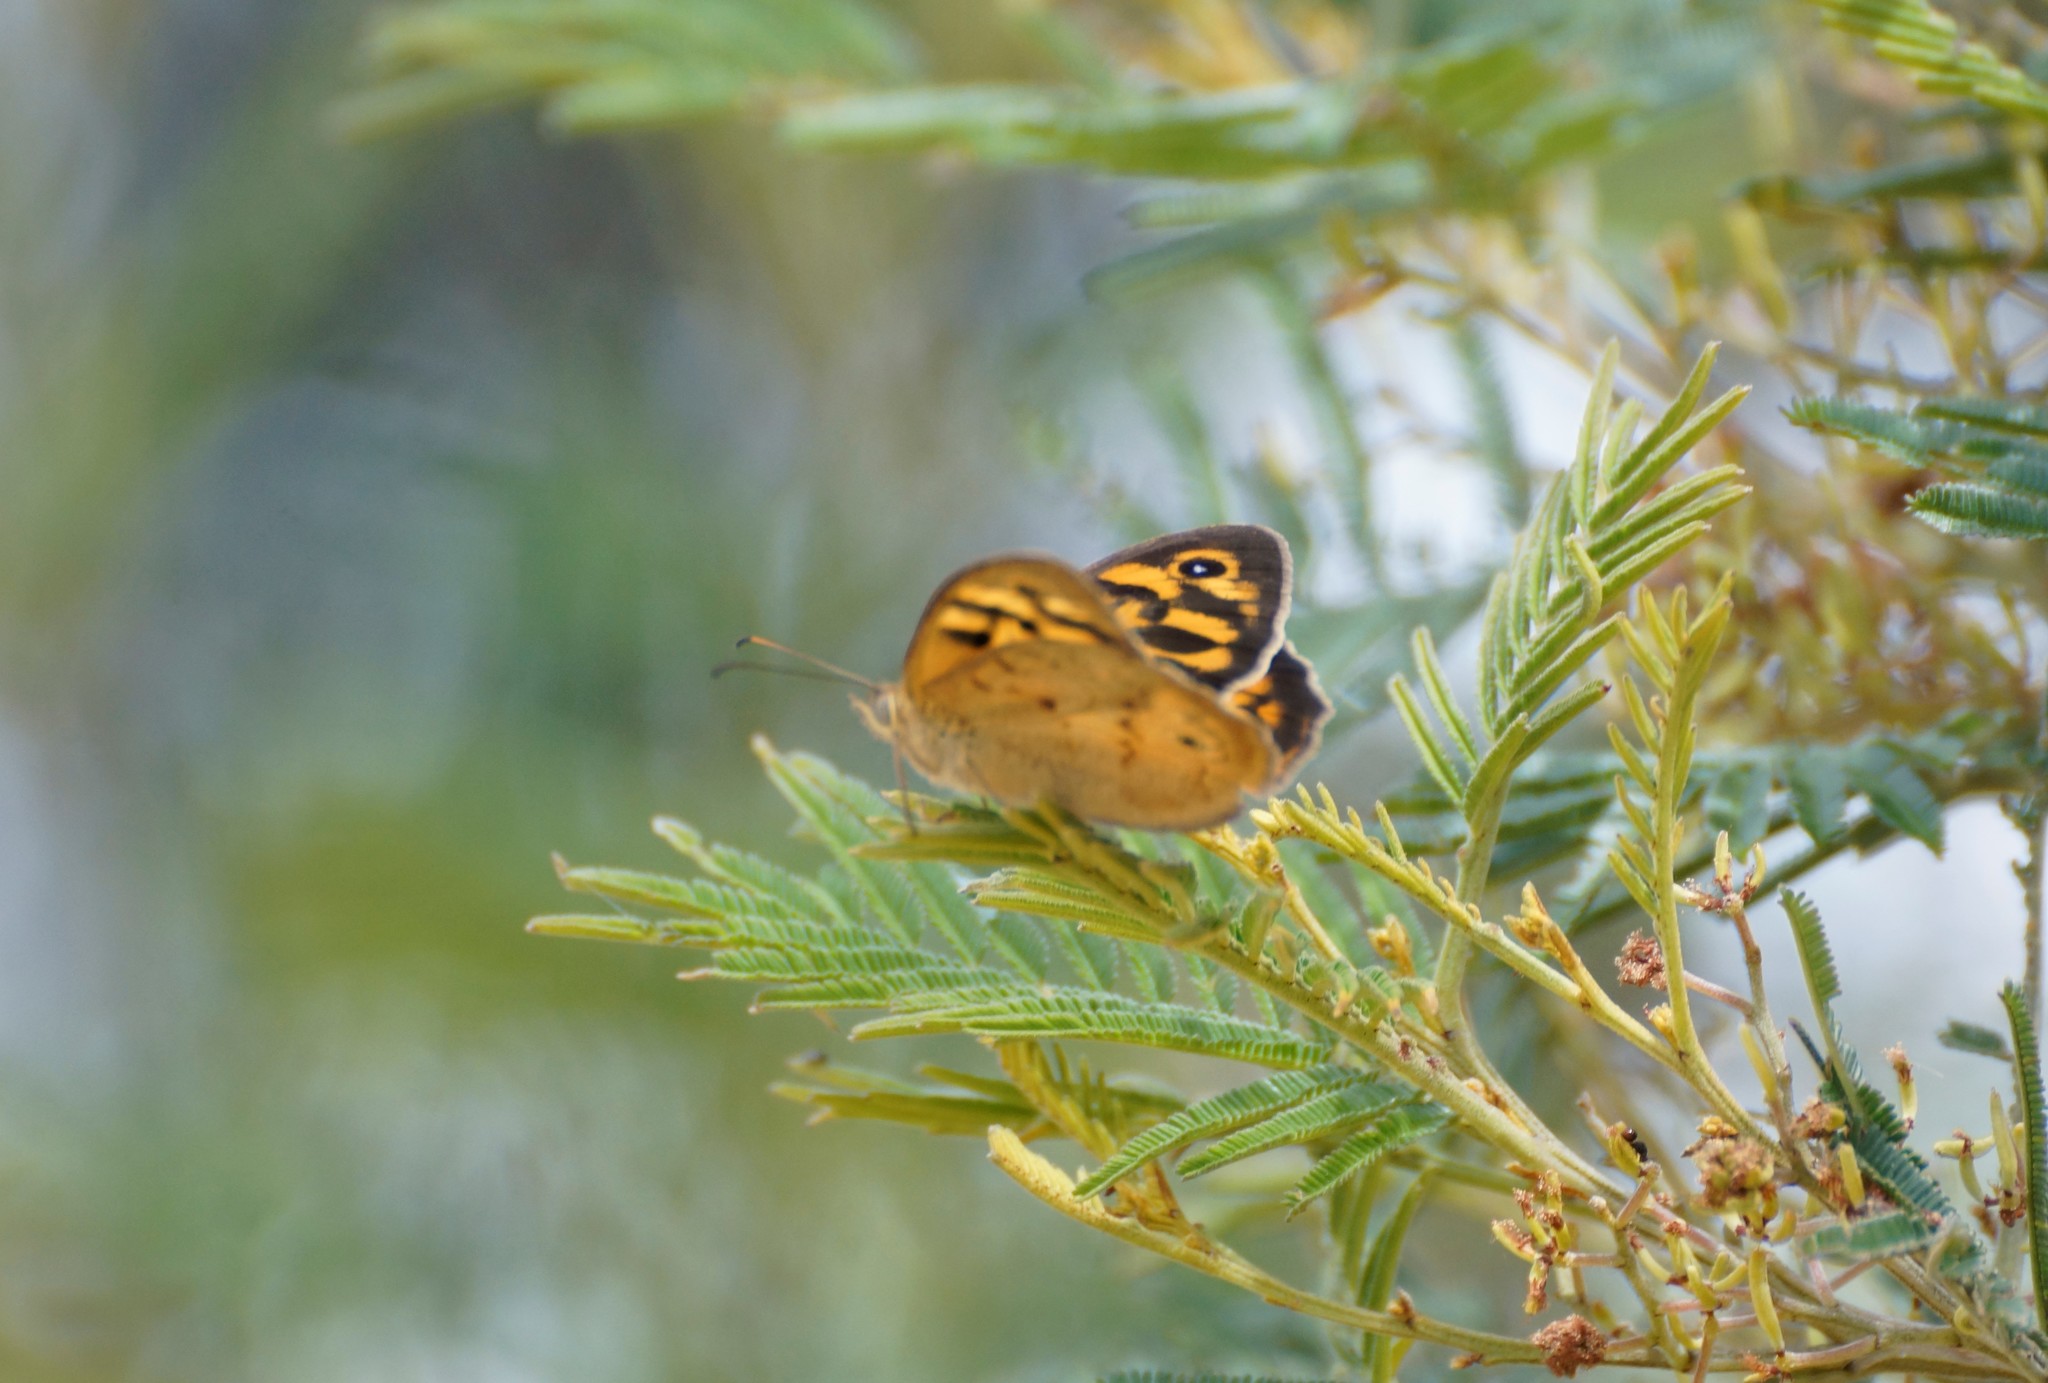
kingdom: Animalia
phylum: Arthropoda
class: Insecta
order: Lepidoptera
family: Nymphalidae
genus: Heteronympha
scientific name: Heteronympha merope
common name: Common brown
